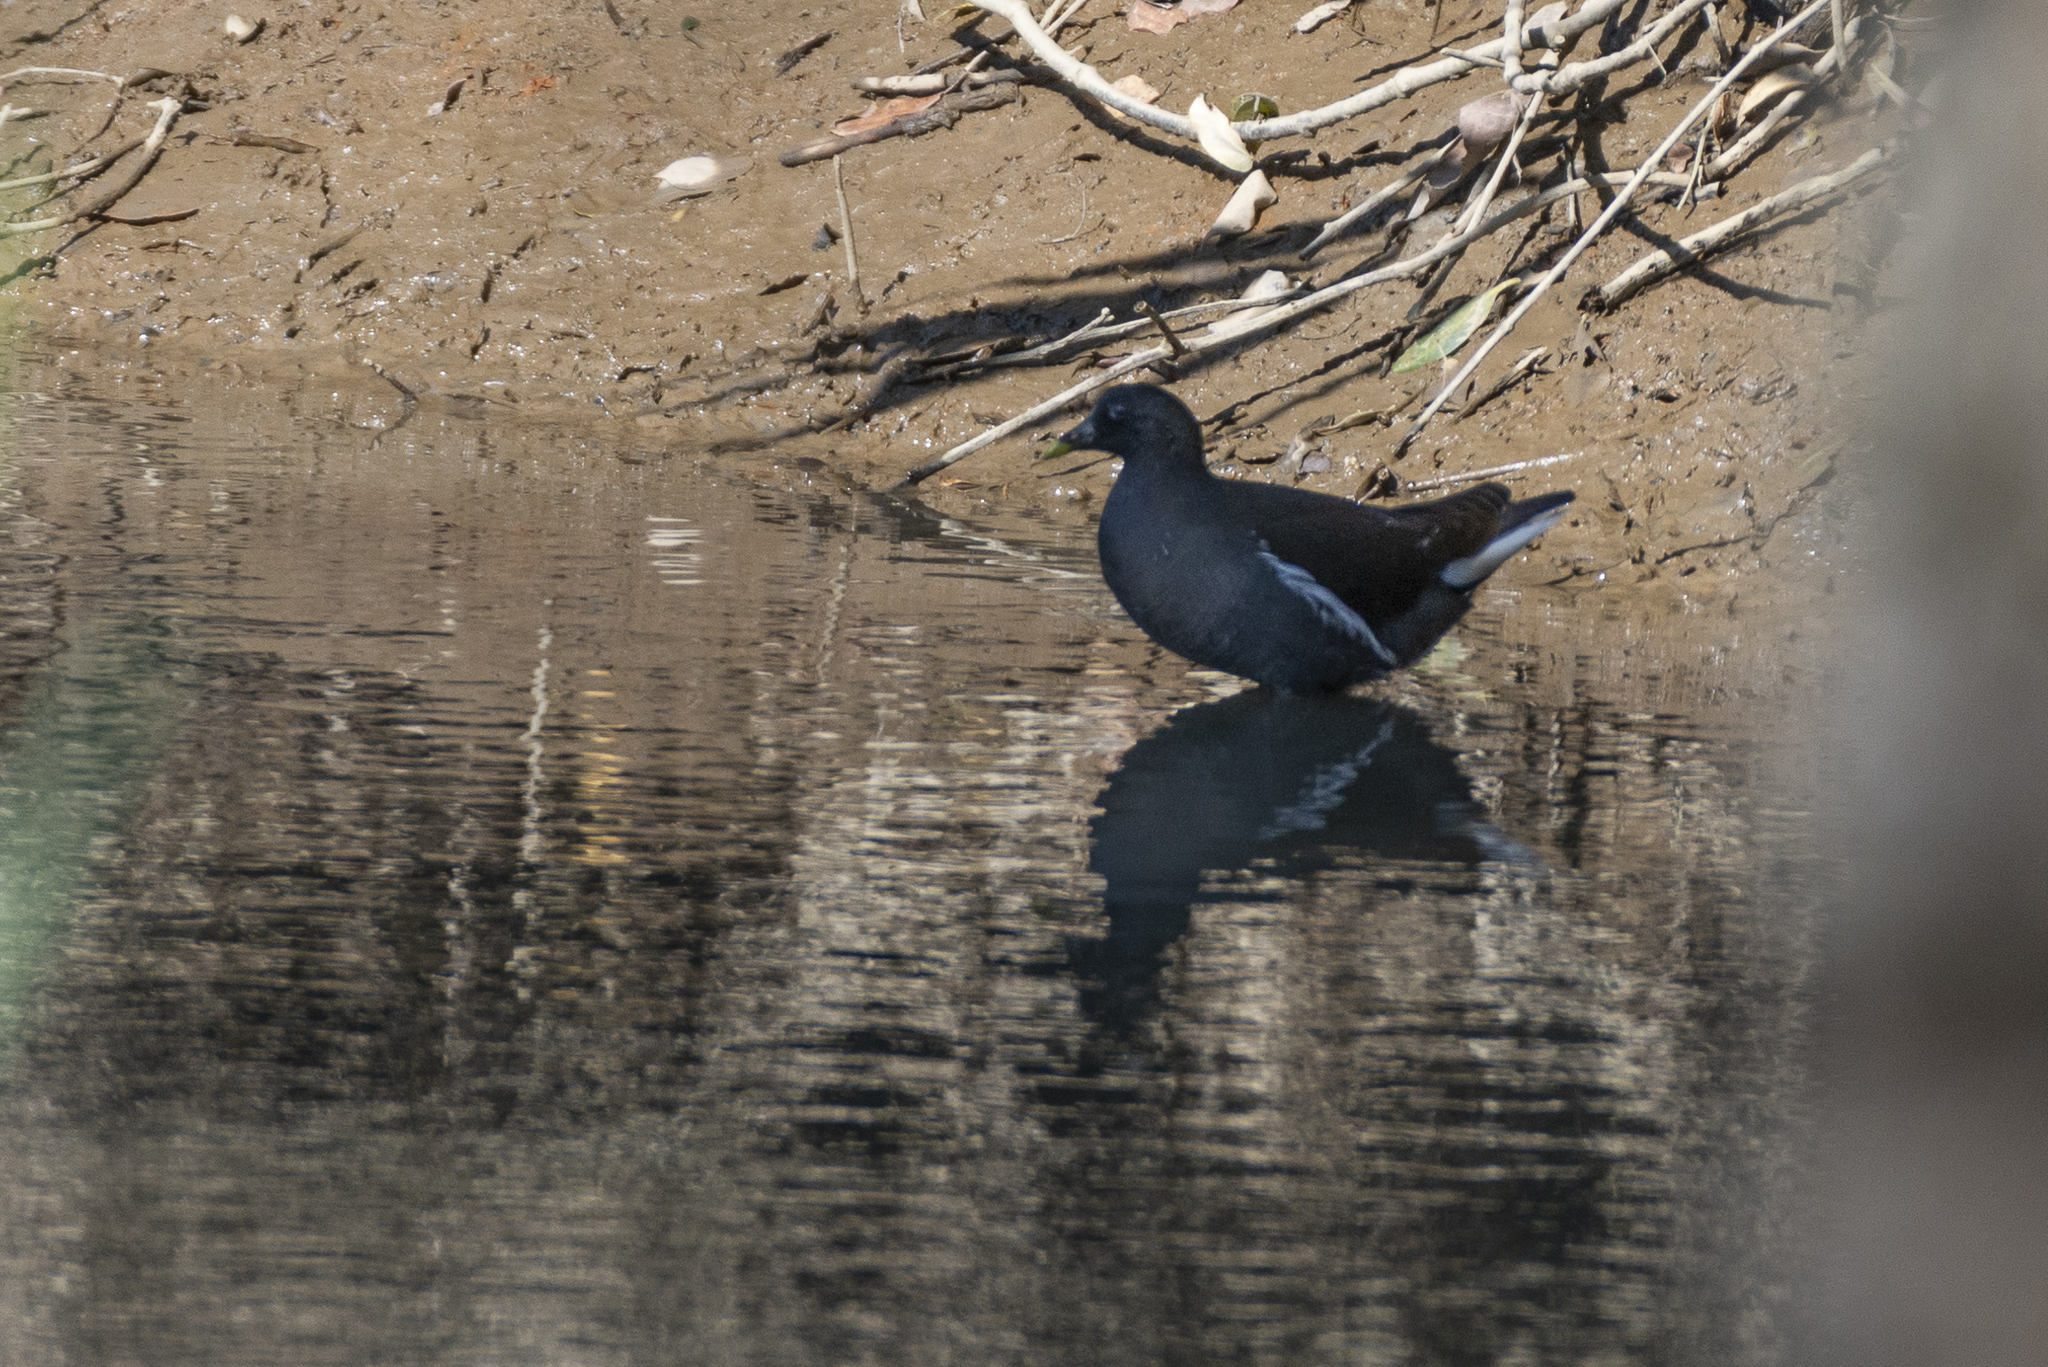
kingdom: Animalia
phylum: Chordata
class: Aves
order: Gruiformes
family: Rallidae
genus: Gallinula
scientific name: Gallinula chloropus
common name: Common moorhen
